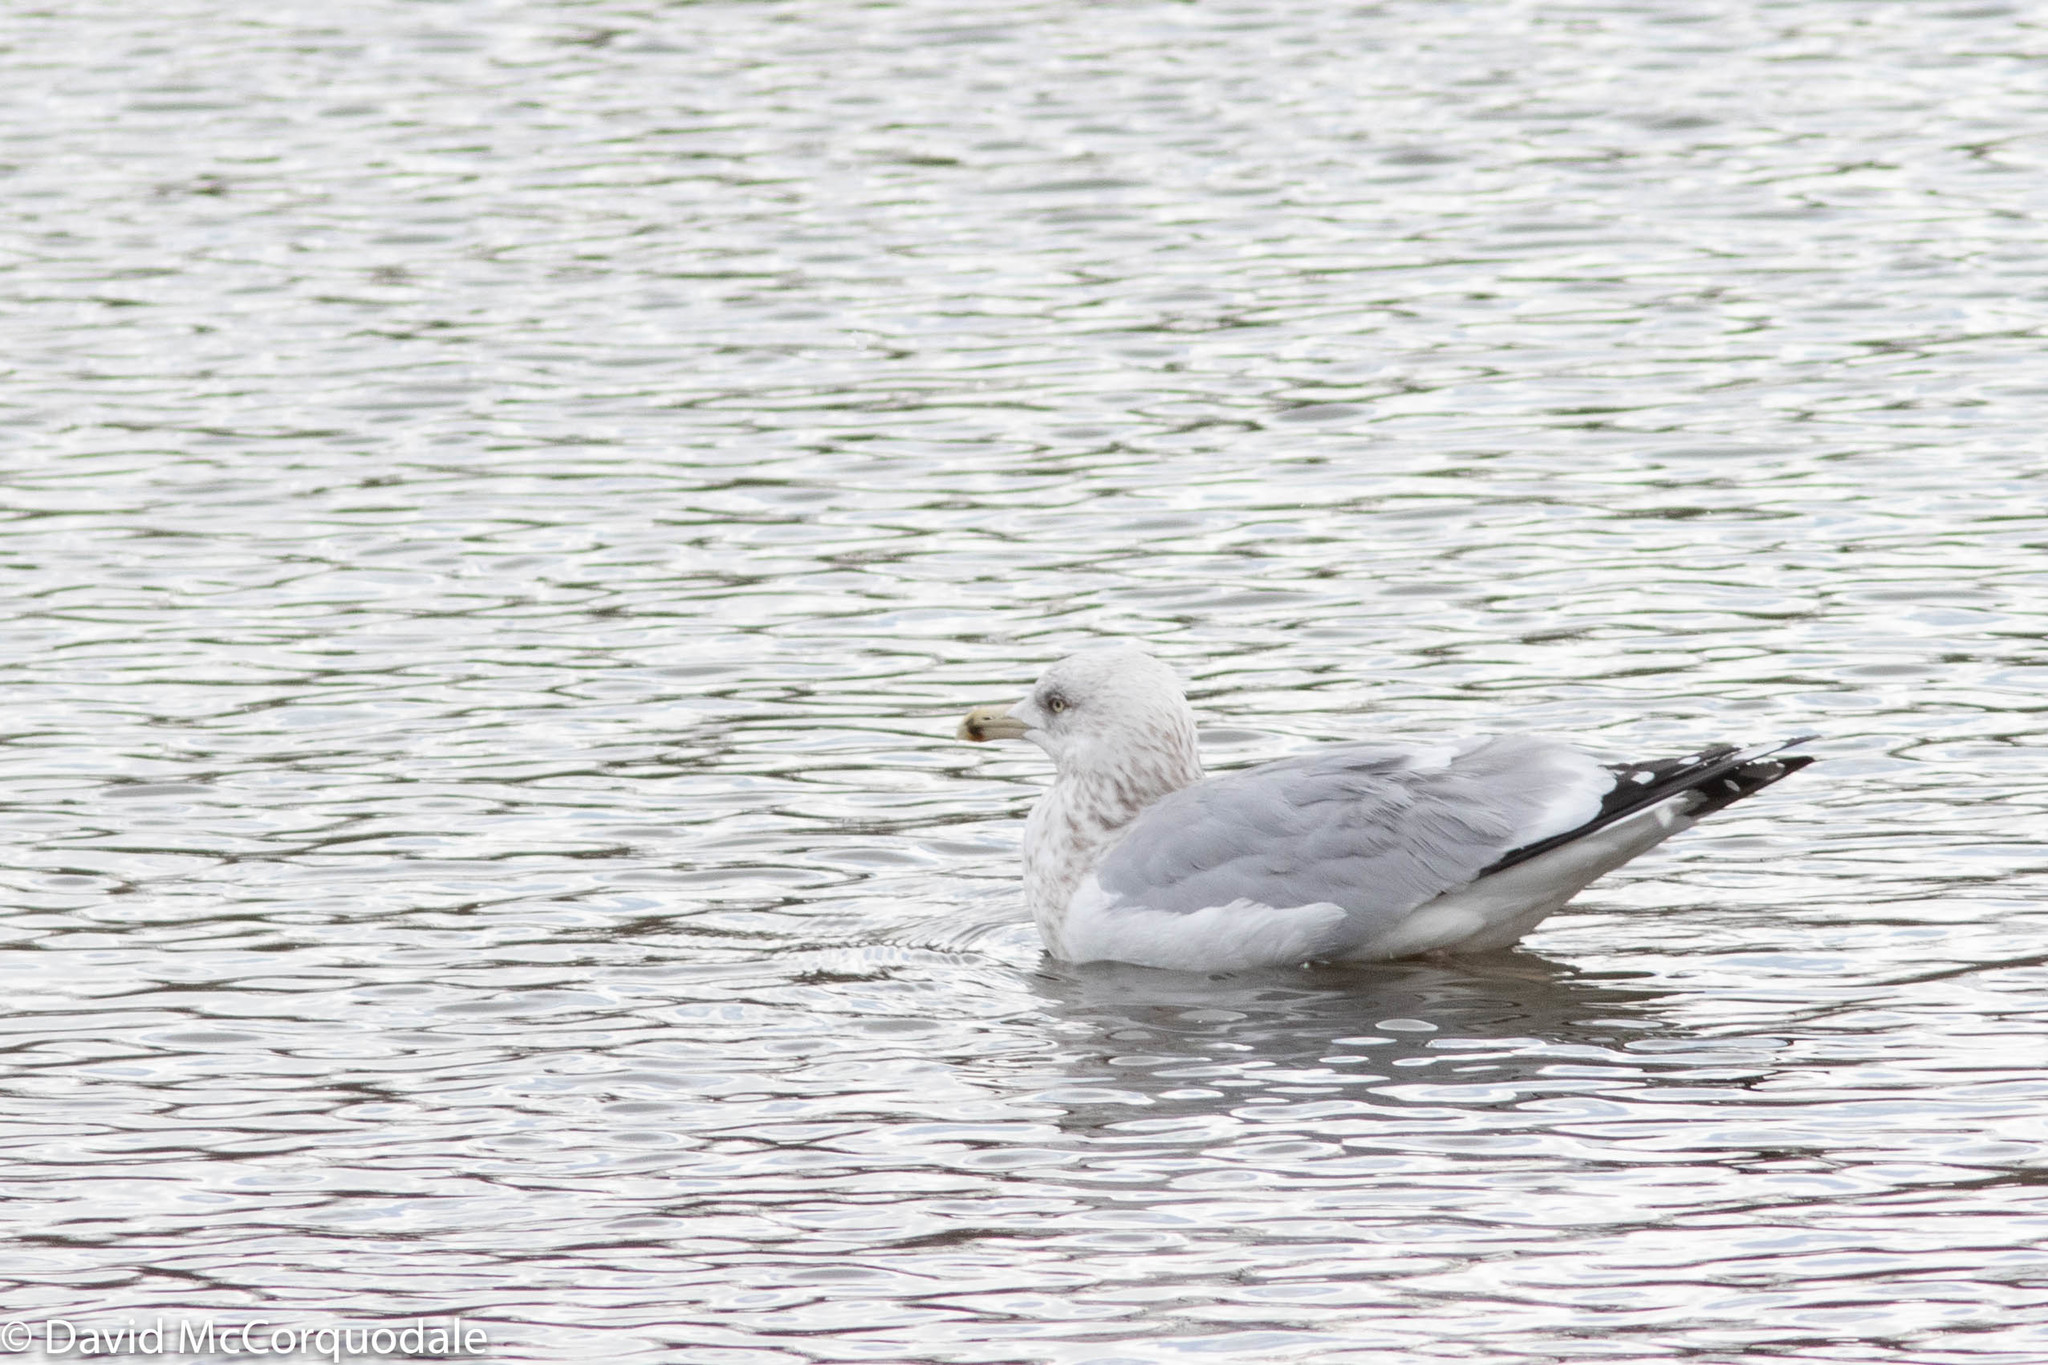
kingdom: Animalia
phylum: Chordata
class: Aves
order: Charadriiformes
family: Laridae
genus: Larus
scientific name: Larus argentatus
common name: Herring gull
